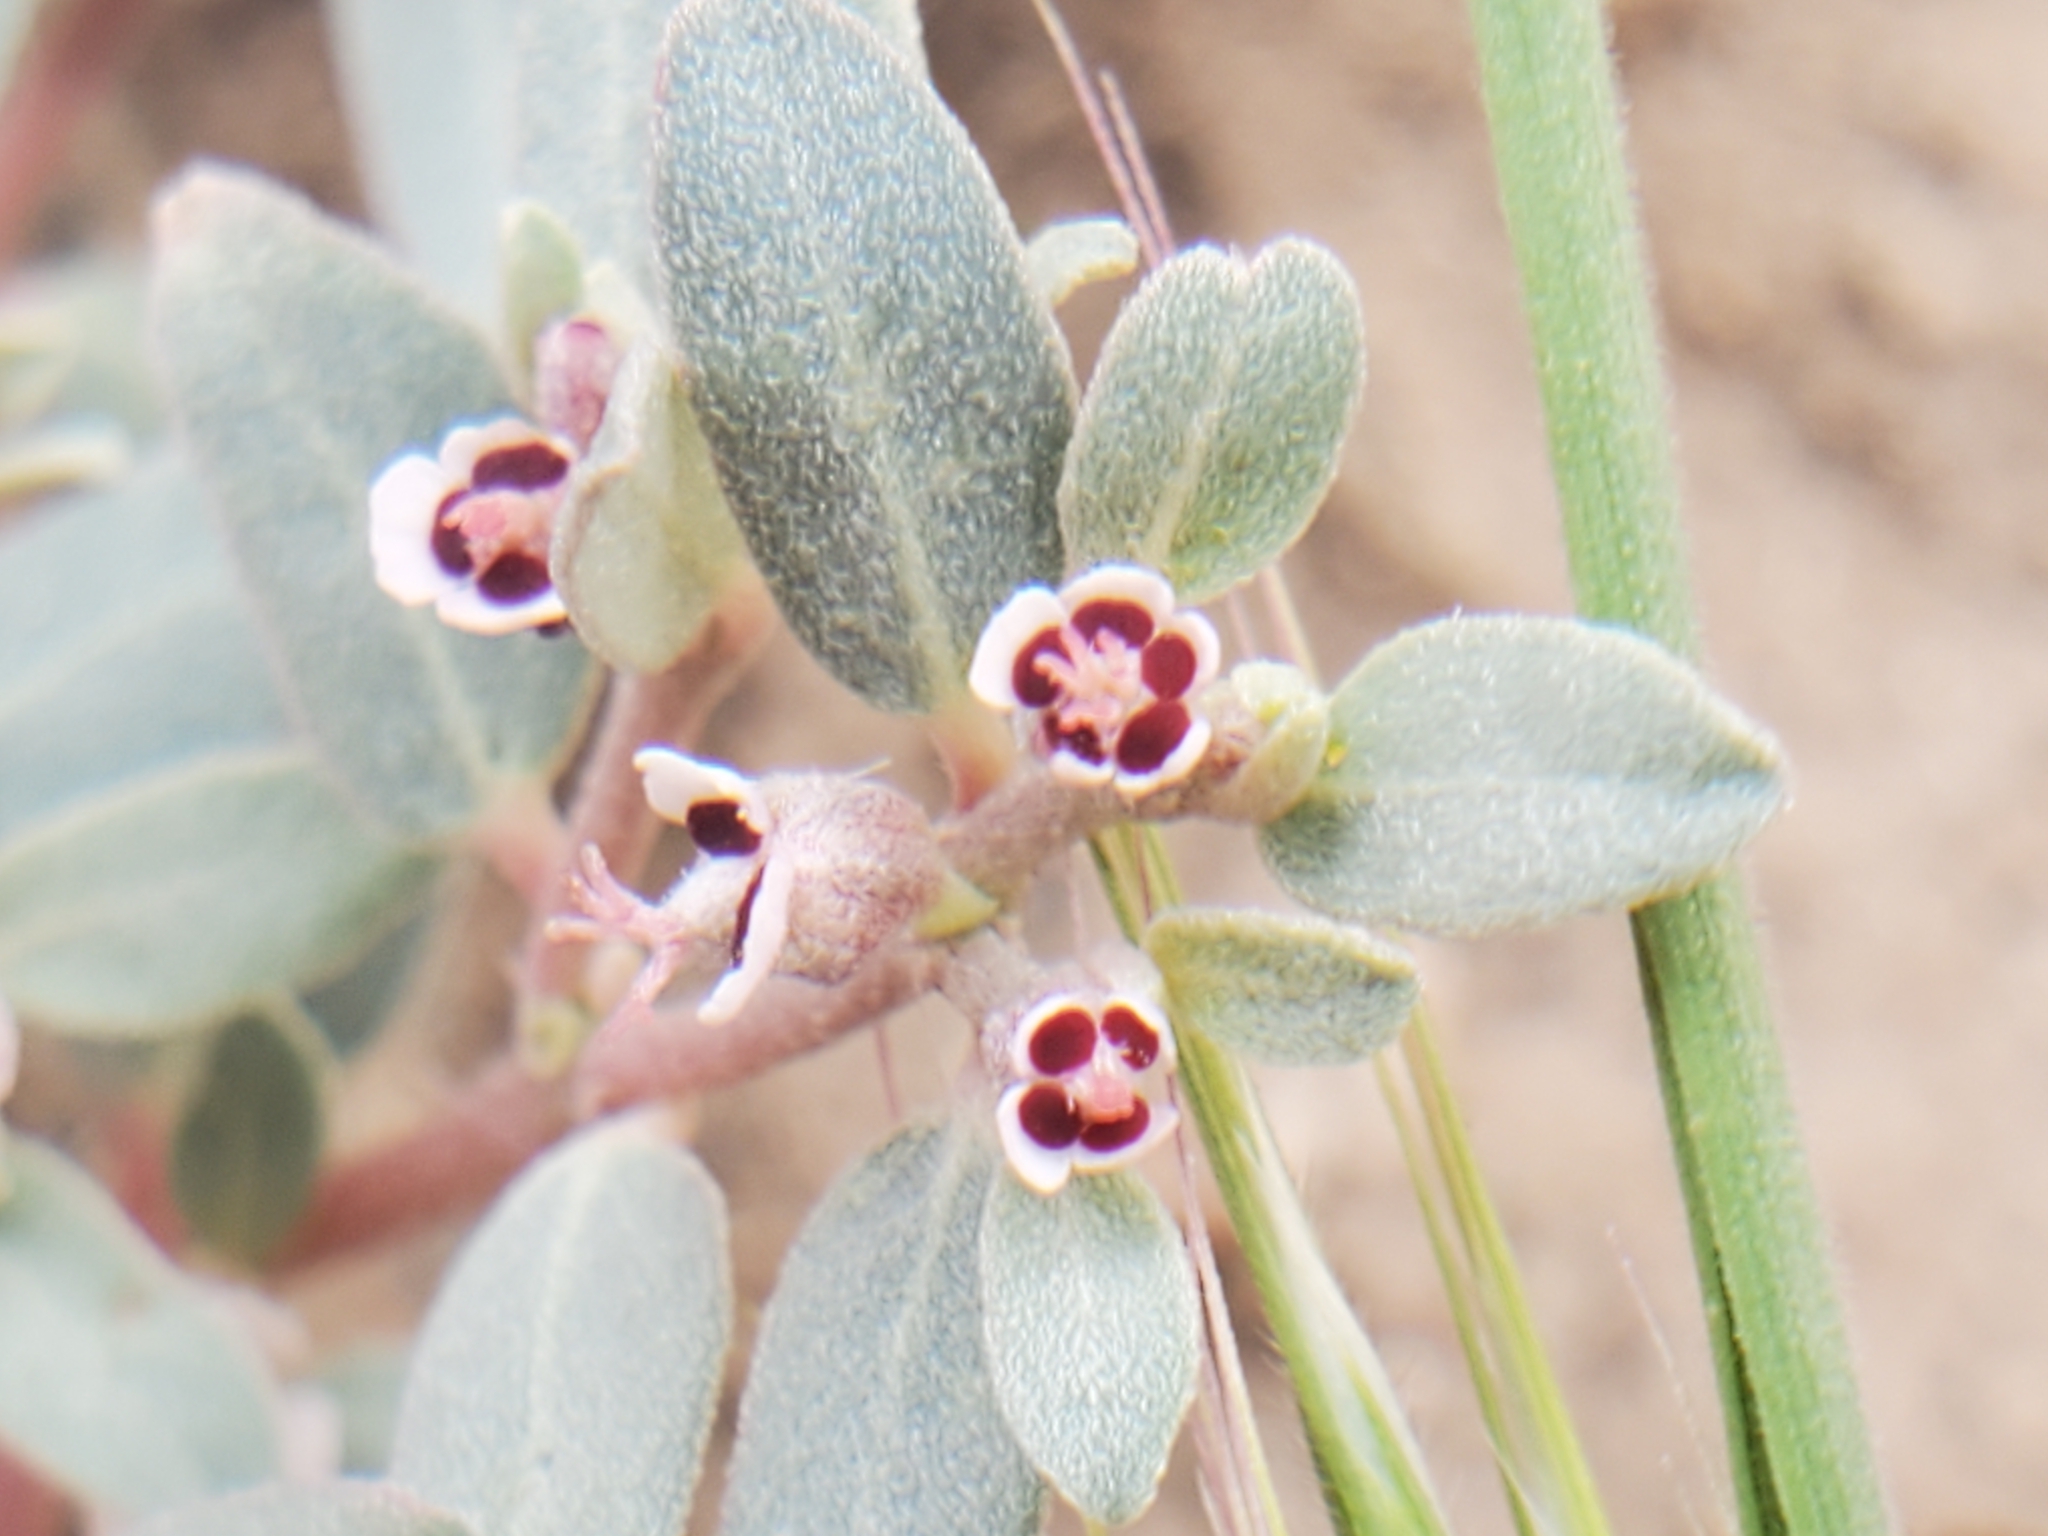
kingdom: Plantae
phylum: Tracheophyta
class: Magnoliopsida
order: Malpighiales
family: Euphorbiaceae
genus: Euphorbia
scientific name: Euphorbia pediculifera
